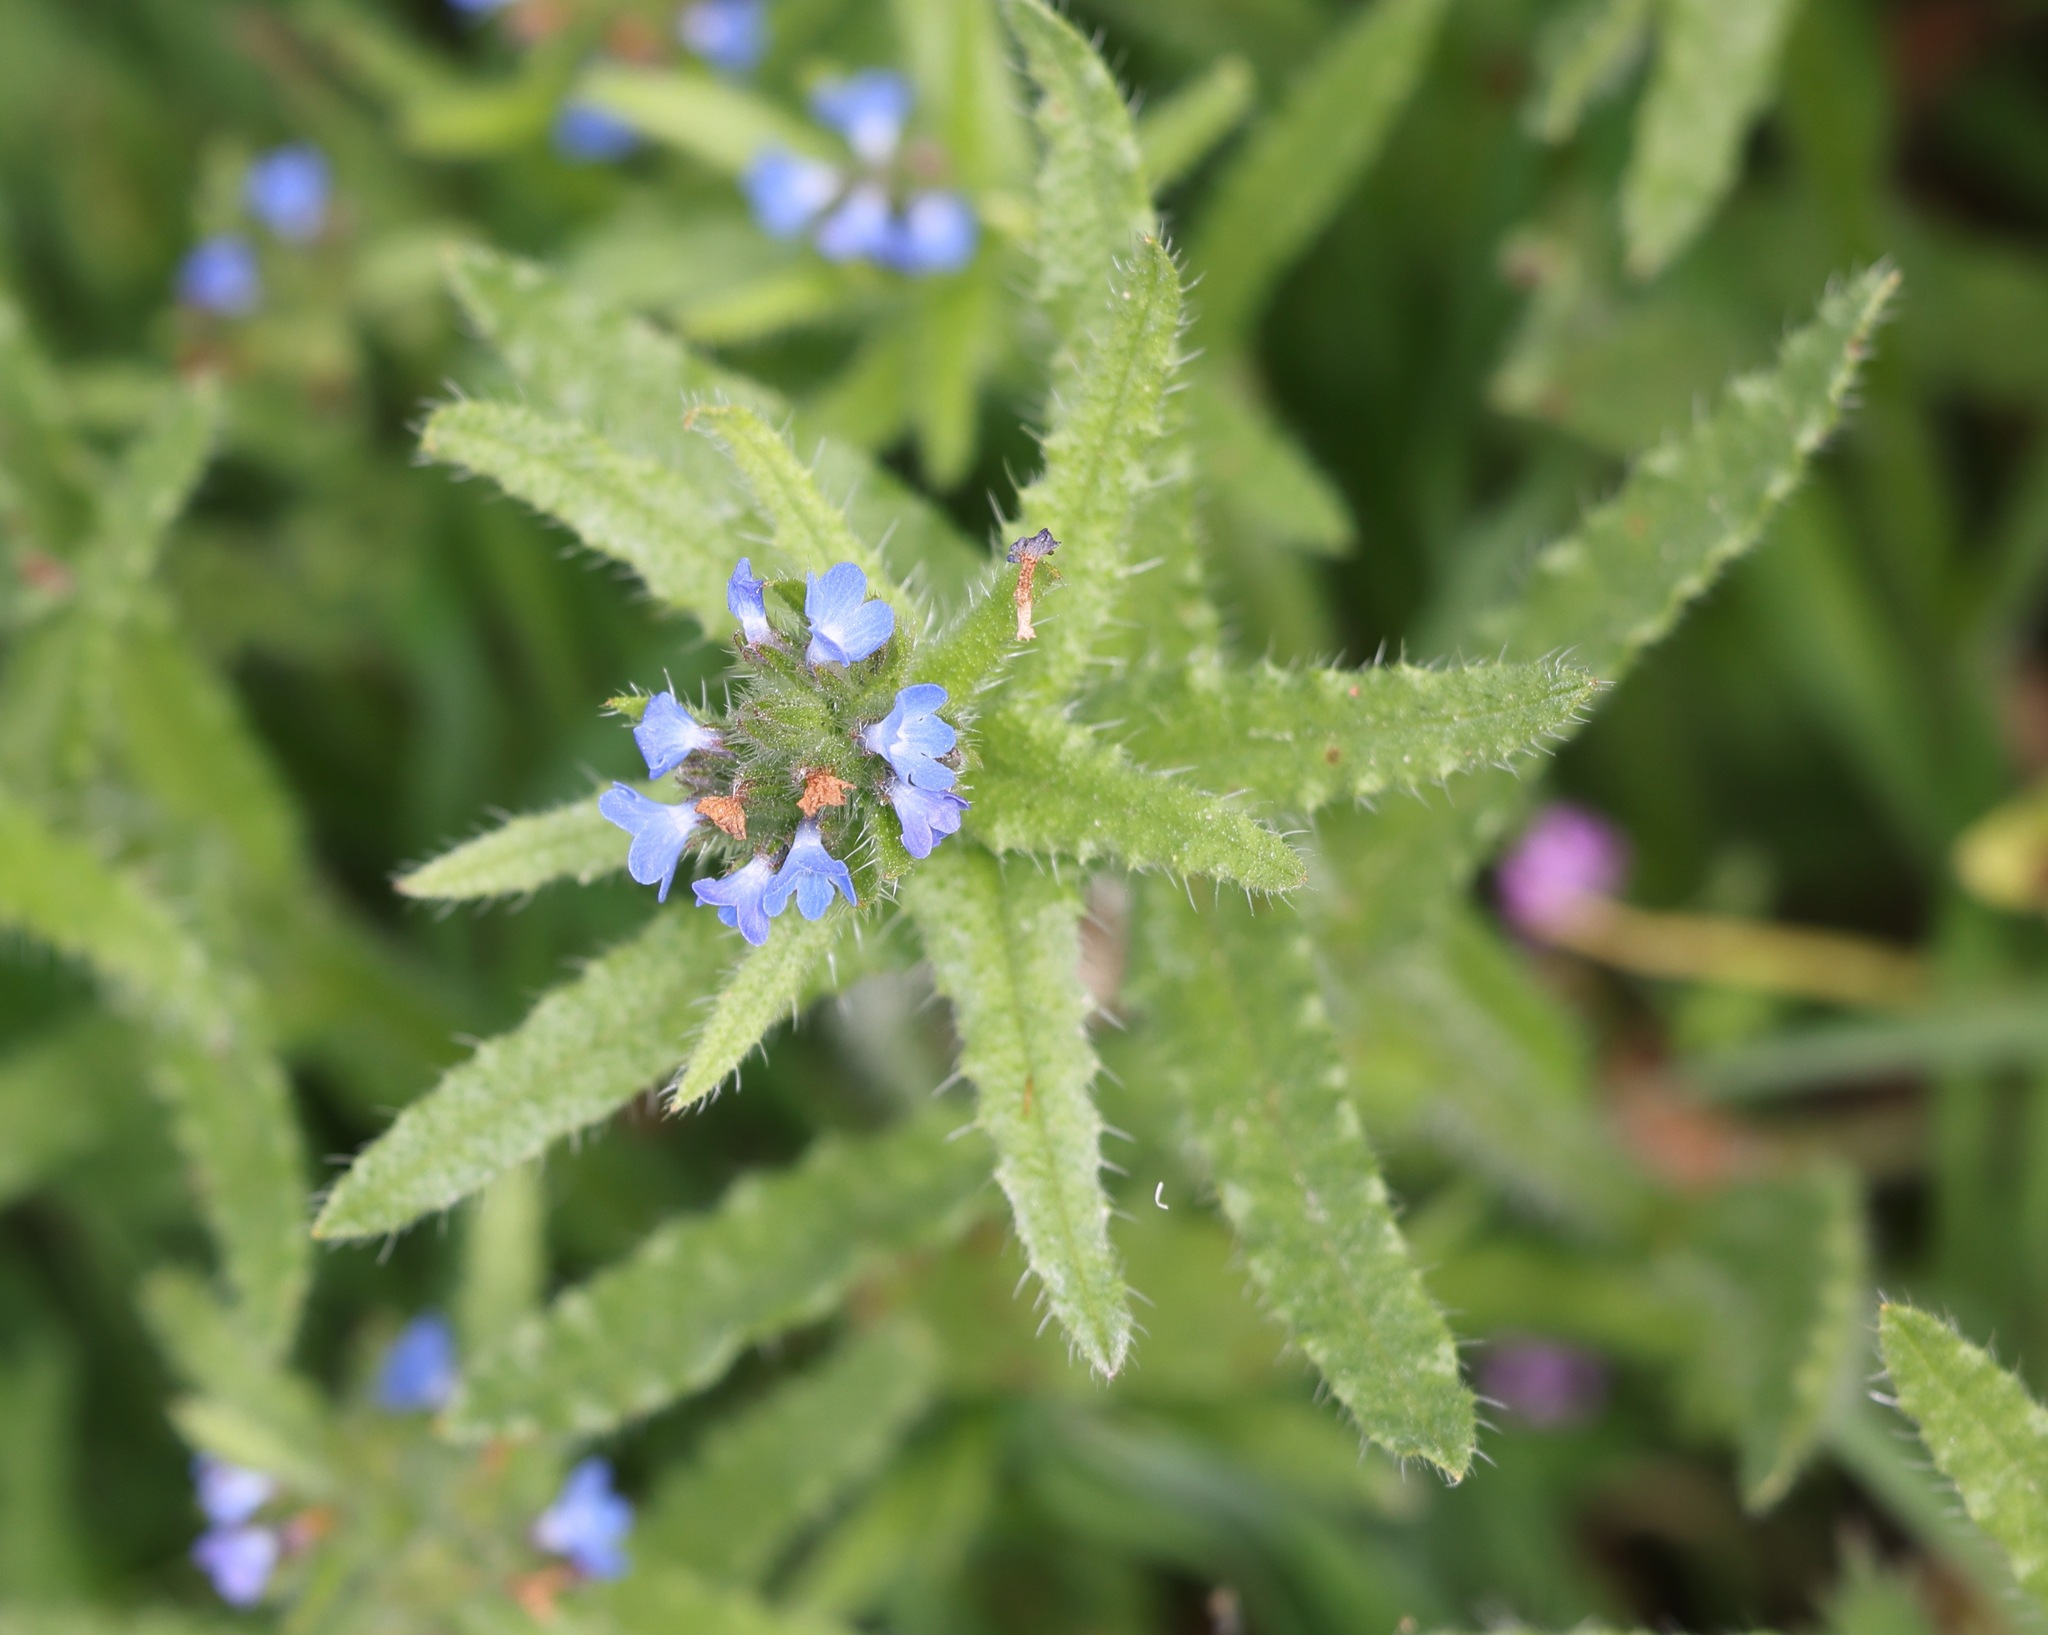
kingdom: Plantae
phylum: Tracheophyta
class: Magnoliopsida
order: Boraginales
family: Boraginaceae
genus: Lycopsis
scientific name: Lycopsis arvensis
